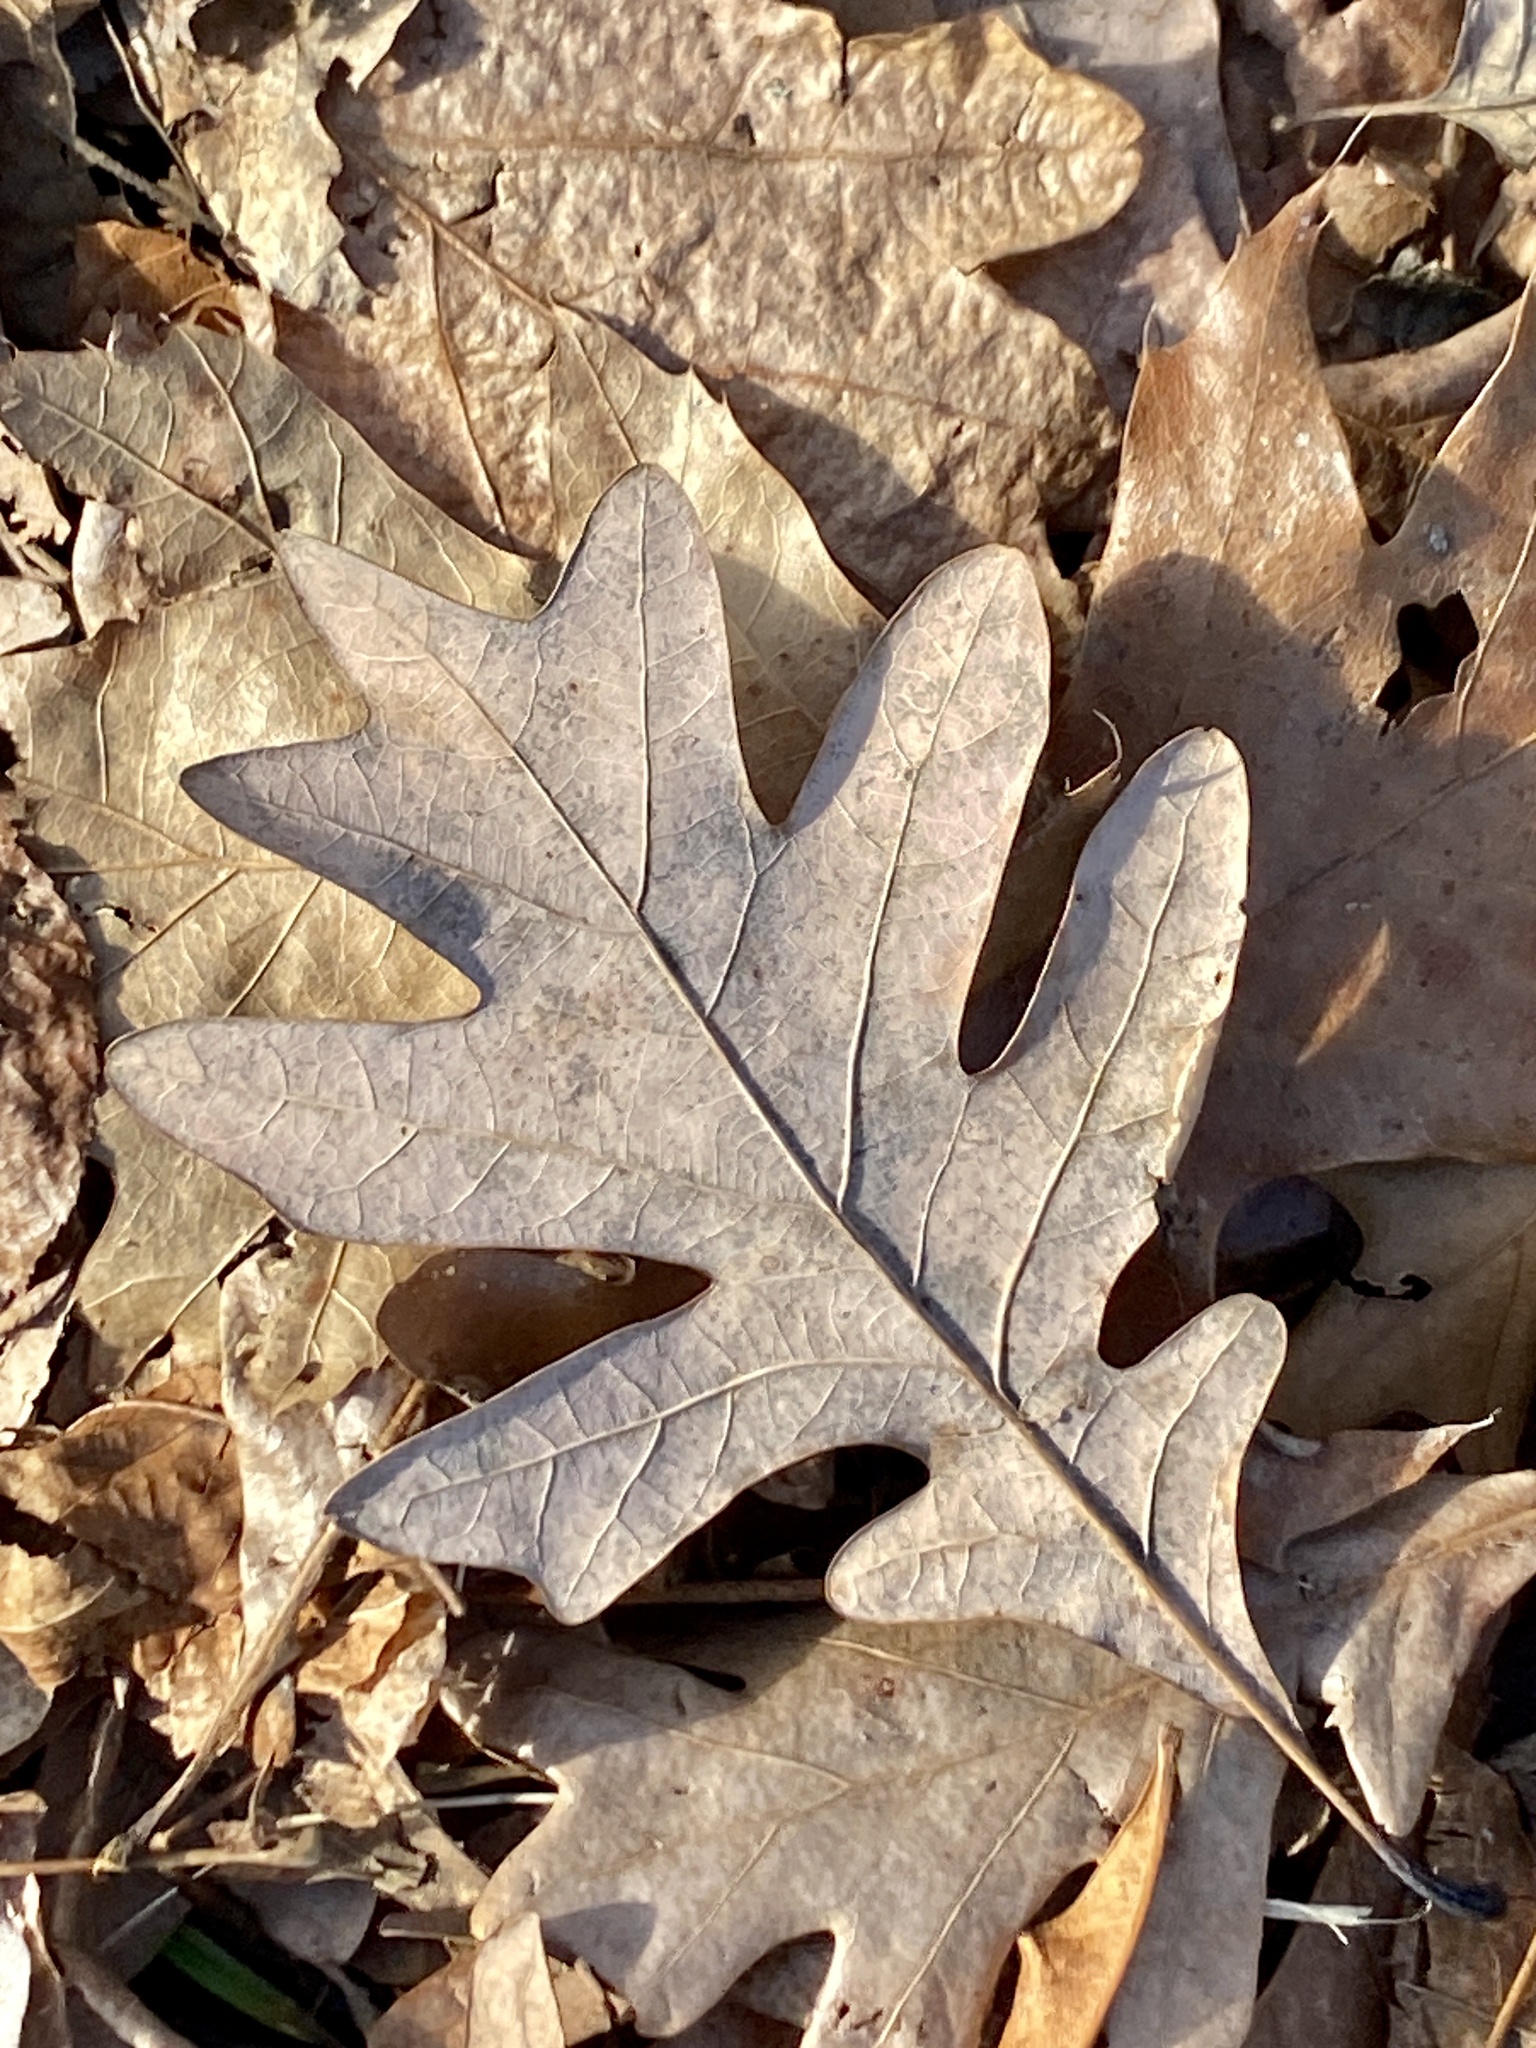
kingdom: Plantae
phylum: Tracheophyta
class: Magnoliopsida
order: Fagales
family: Fagaceae
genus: Quercus
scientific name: Quercus alba
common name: White oak
